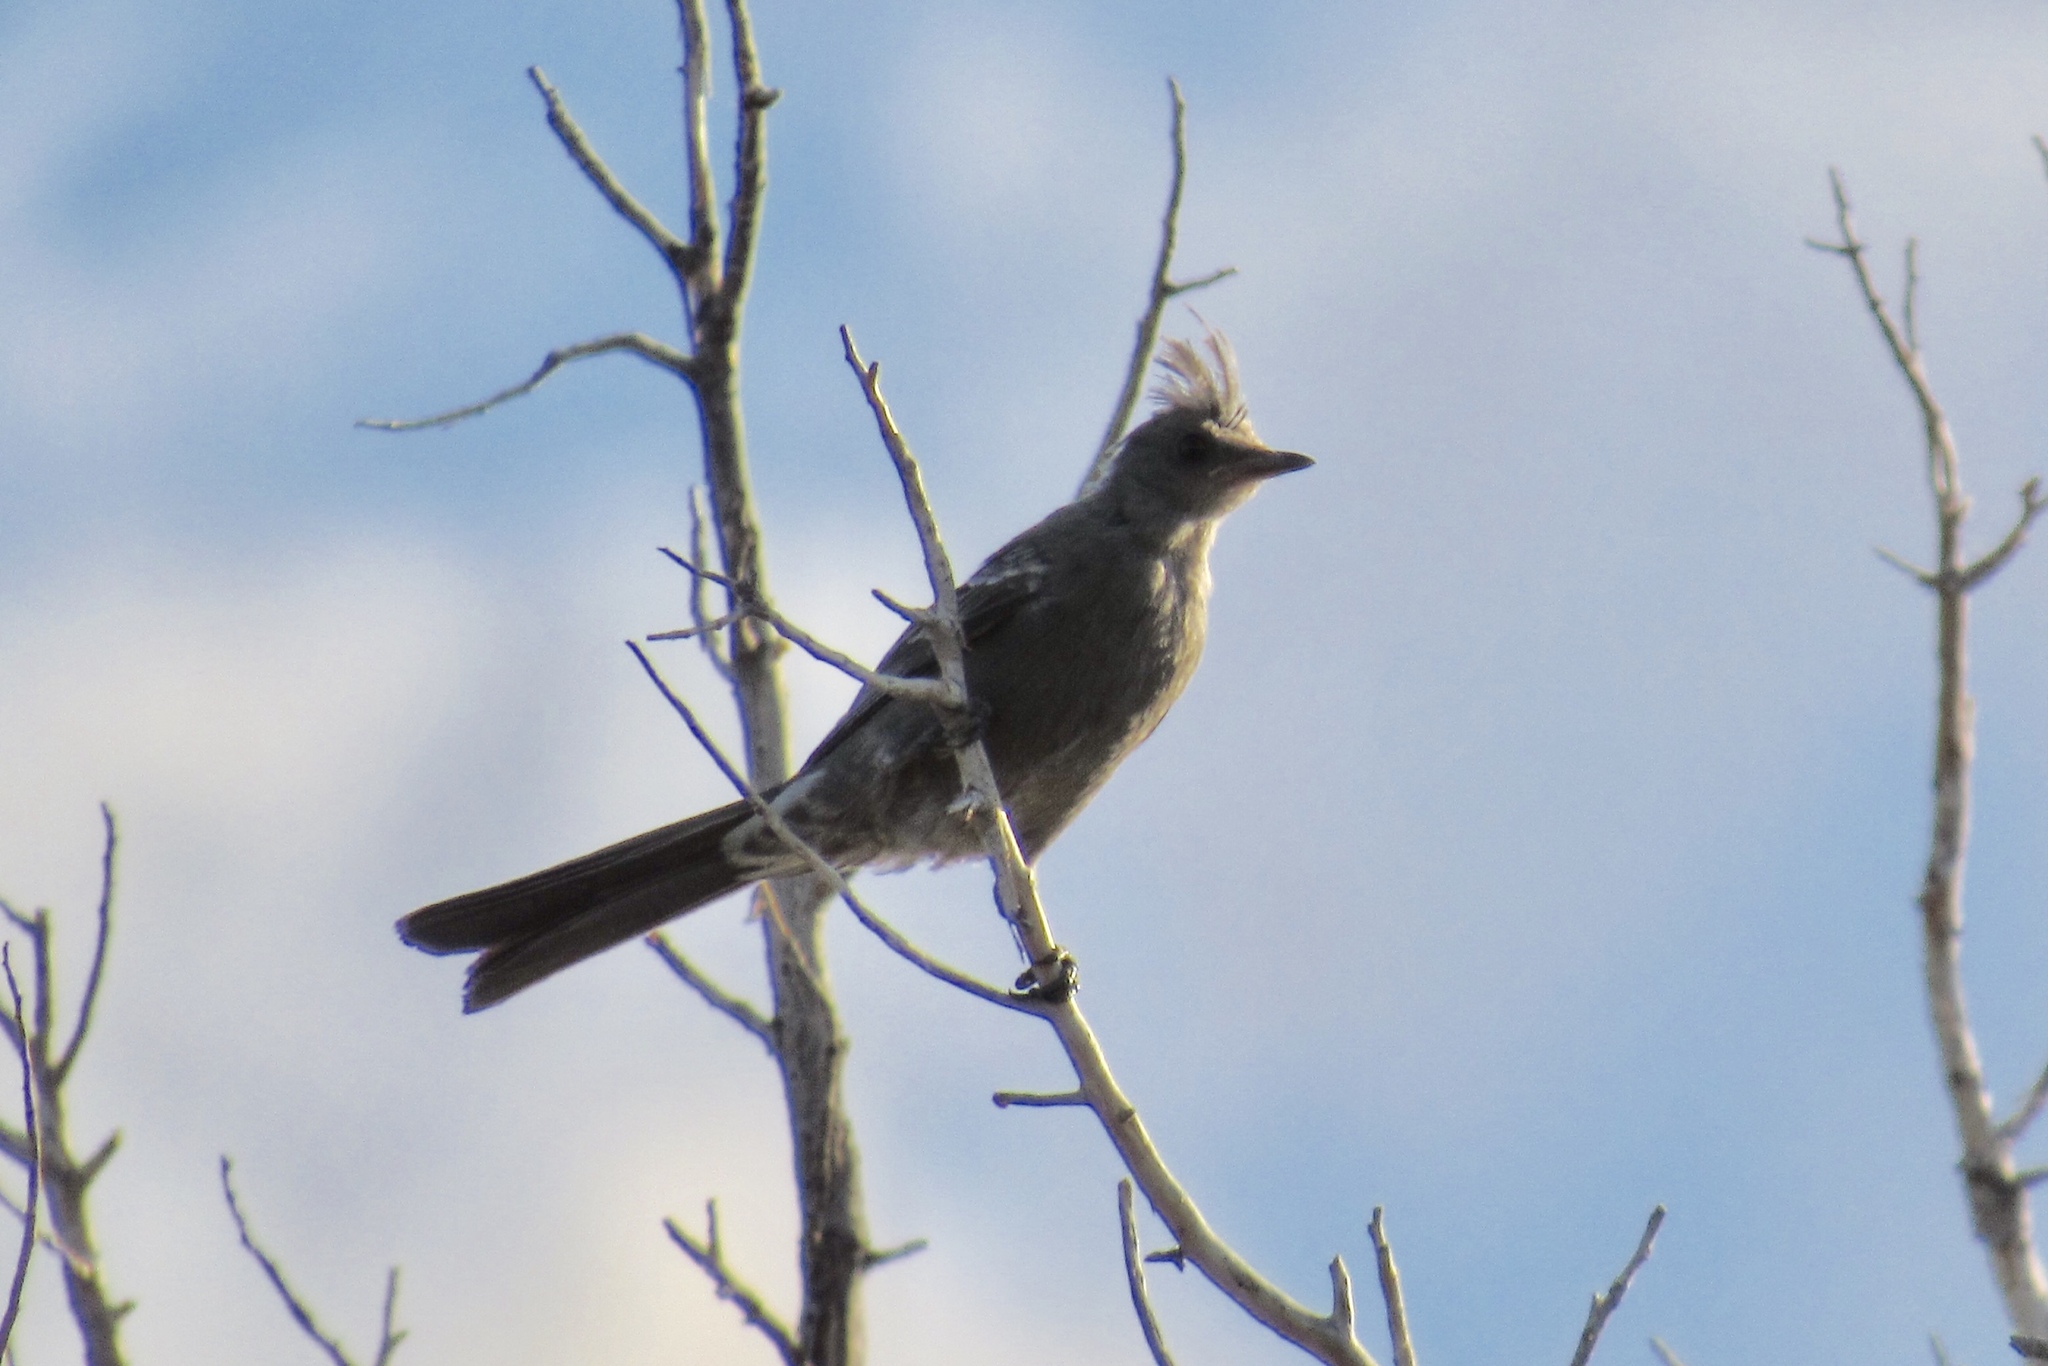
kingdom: Animalia
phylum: Chordata
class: Aves
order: Passeriformes
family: Ptilogonatidae
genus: Phainopepla
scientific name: Phainopepla nitens
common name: Phainopepla
